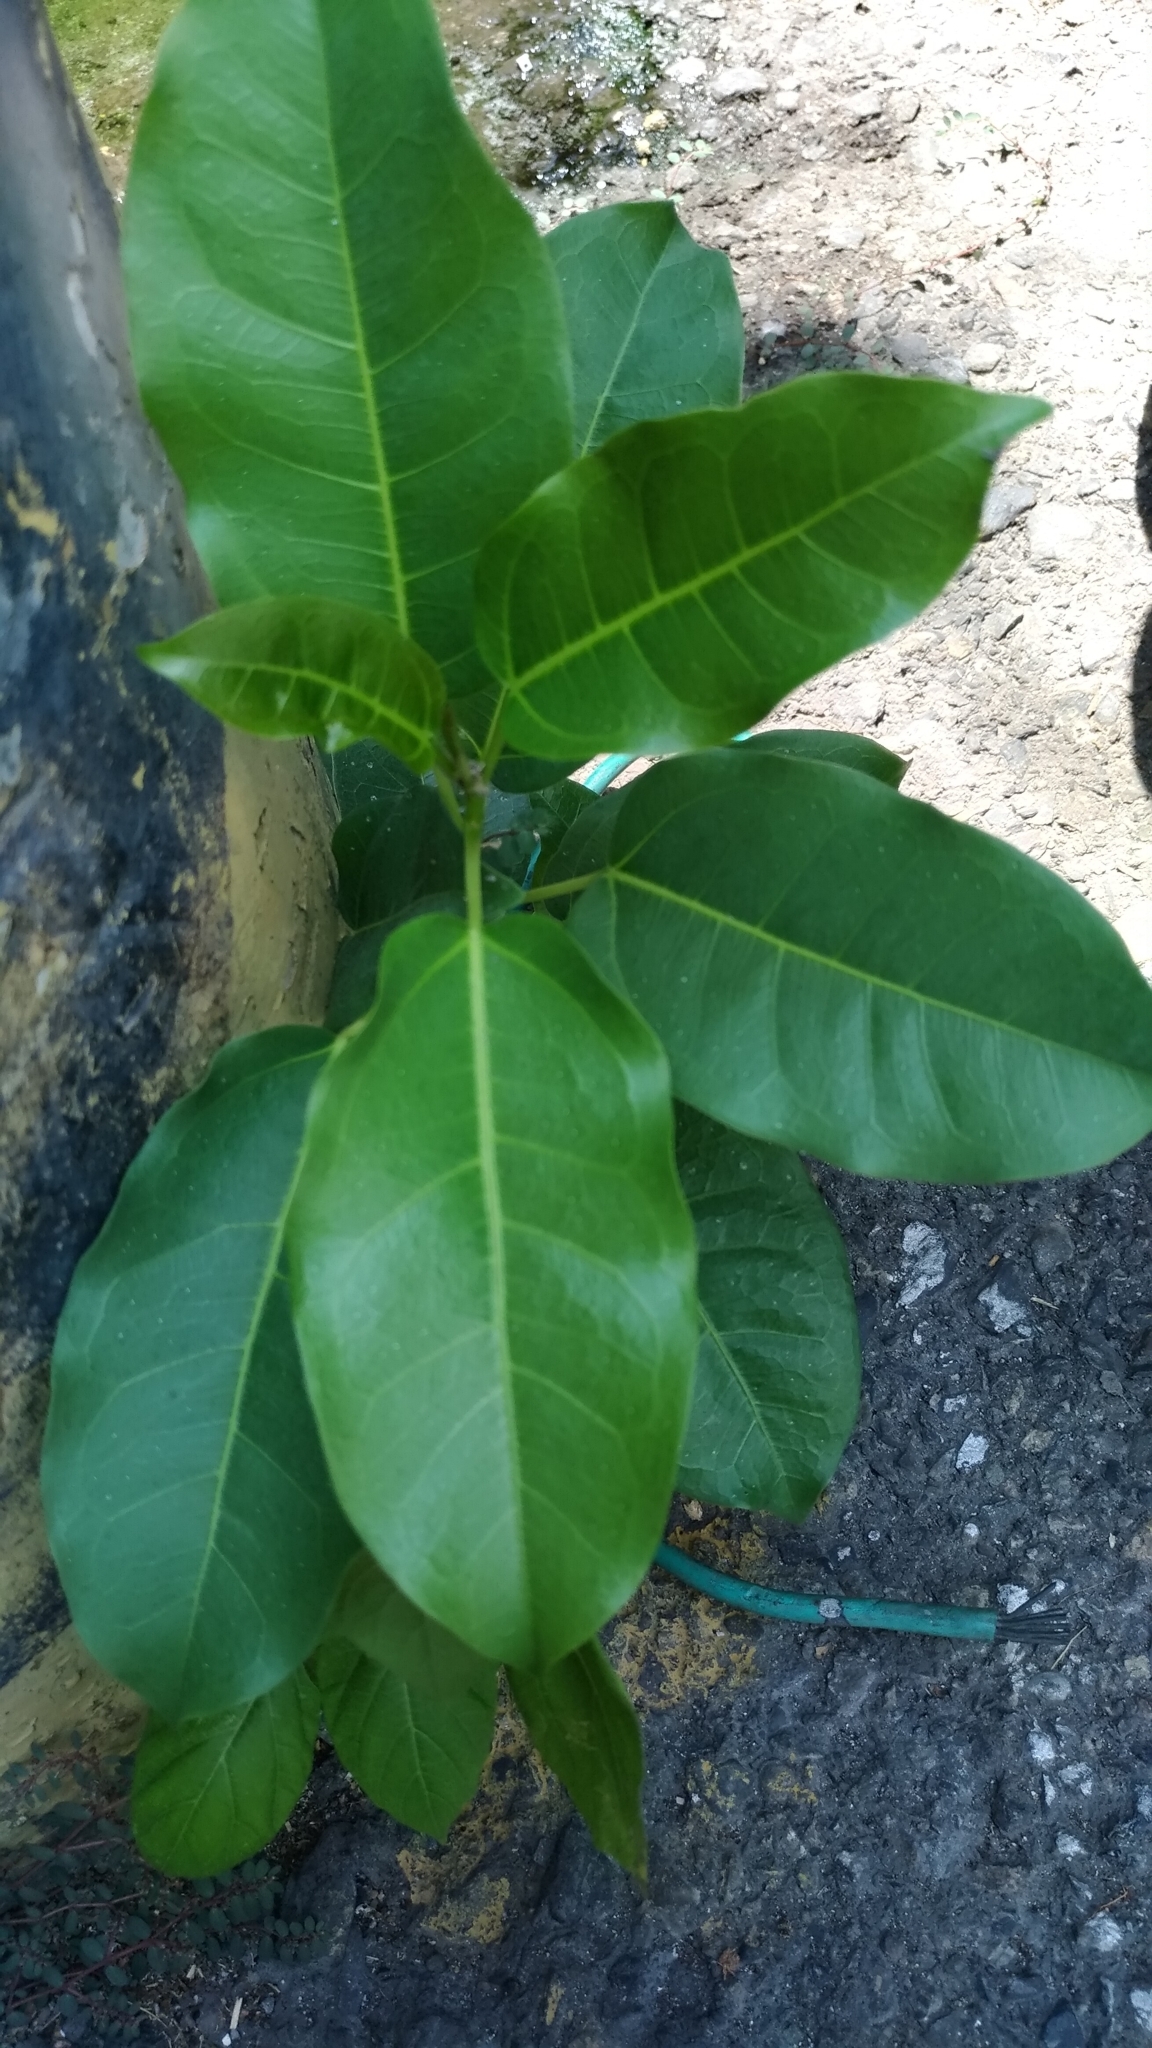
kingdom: Plantae
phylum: Tracheophyta
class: Magnoliopsida
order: Rosales
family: Moraceae
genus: Ficus
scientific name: Ficus subpisocarpa
